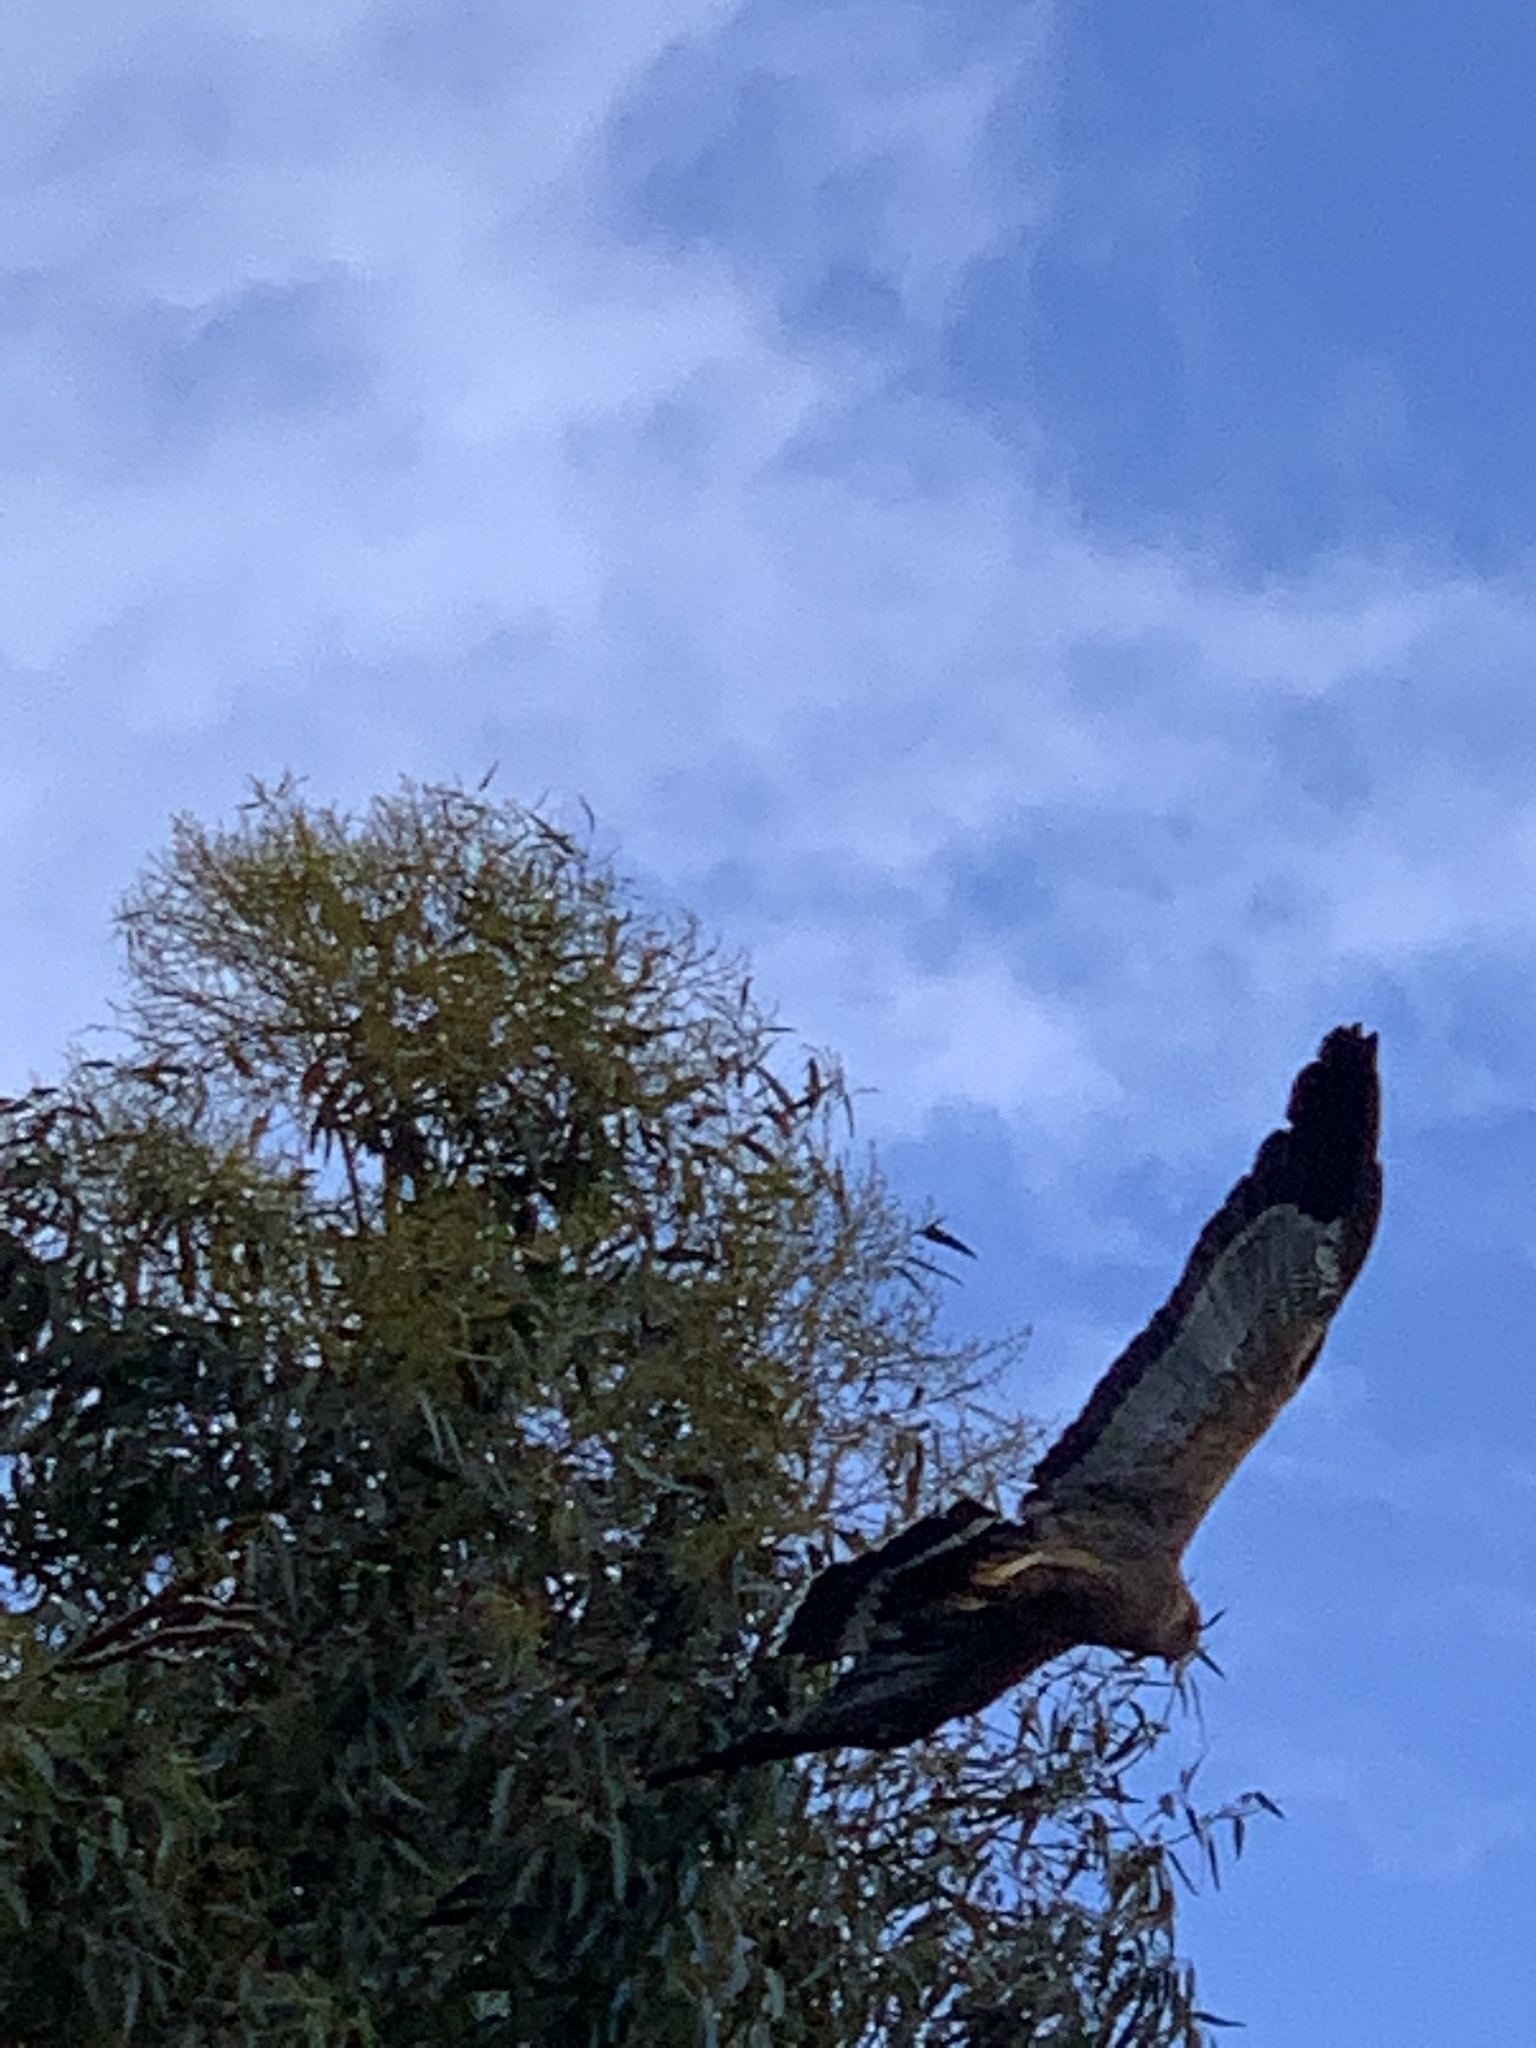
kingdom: Animalia
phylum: Chordata
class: Aves
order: Accipitriformes
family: Accipitridae
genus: Polyboroides
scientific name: Polyboroides typus
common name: African harrier-hawk
